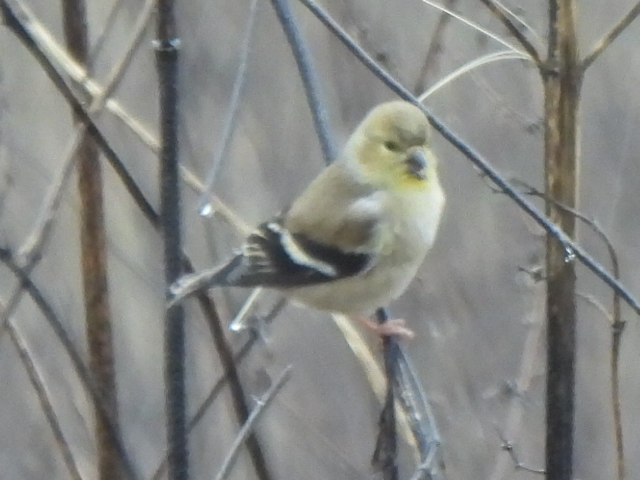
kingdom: Animalia
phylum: Chordata
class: Aves
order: Passeriformes
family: Fringillidae
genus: Spinus
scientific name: Spinus tristis
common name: American goldfinch
